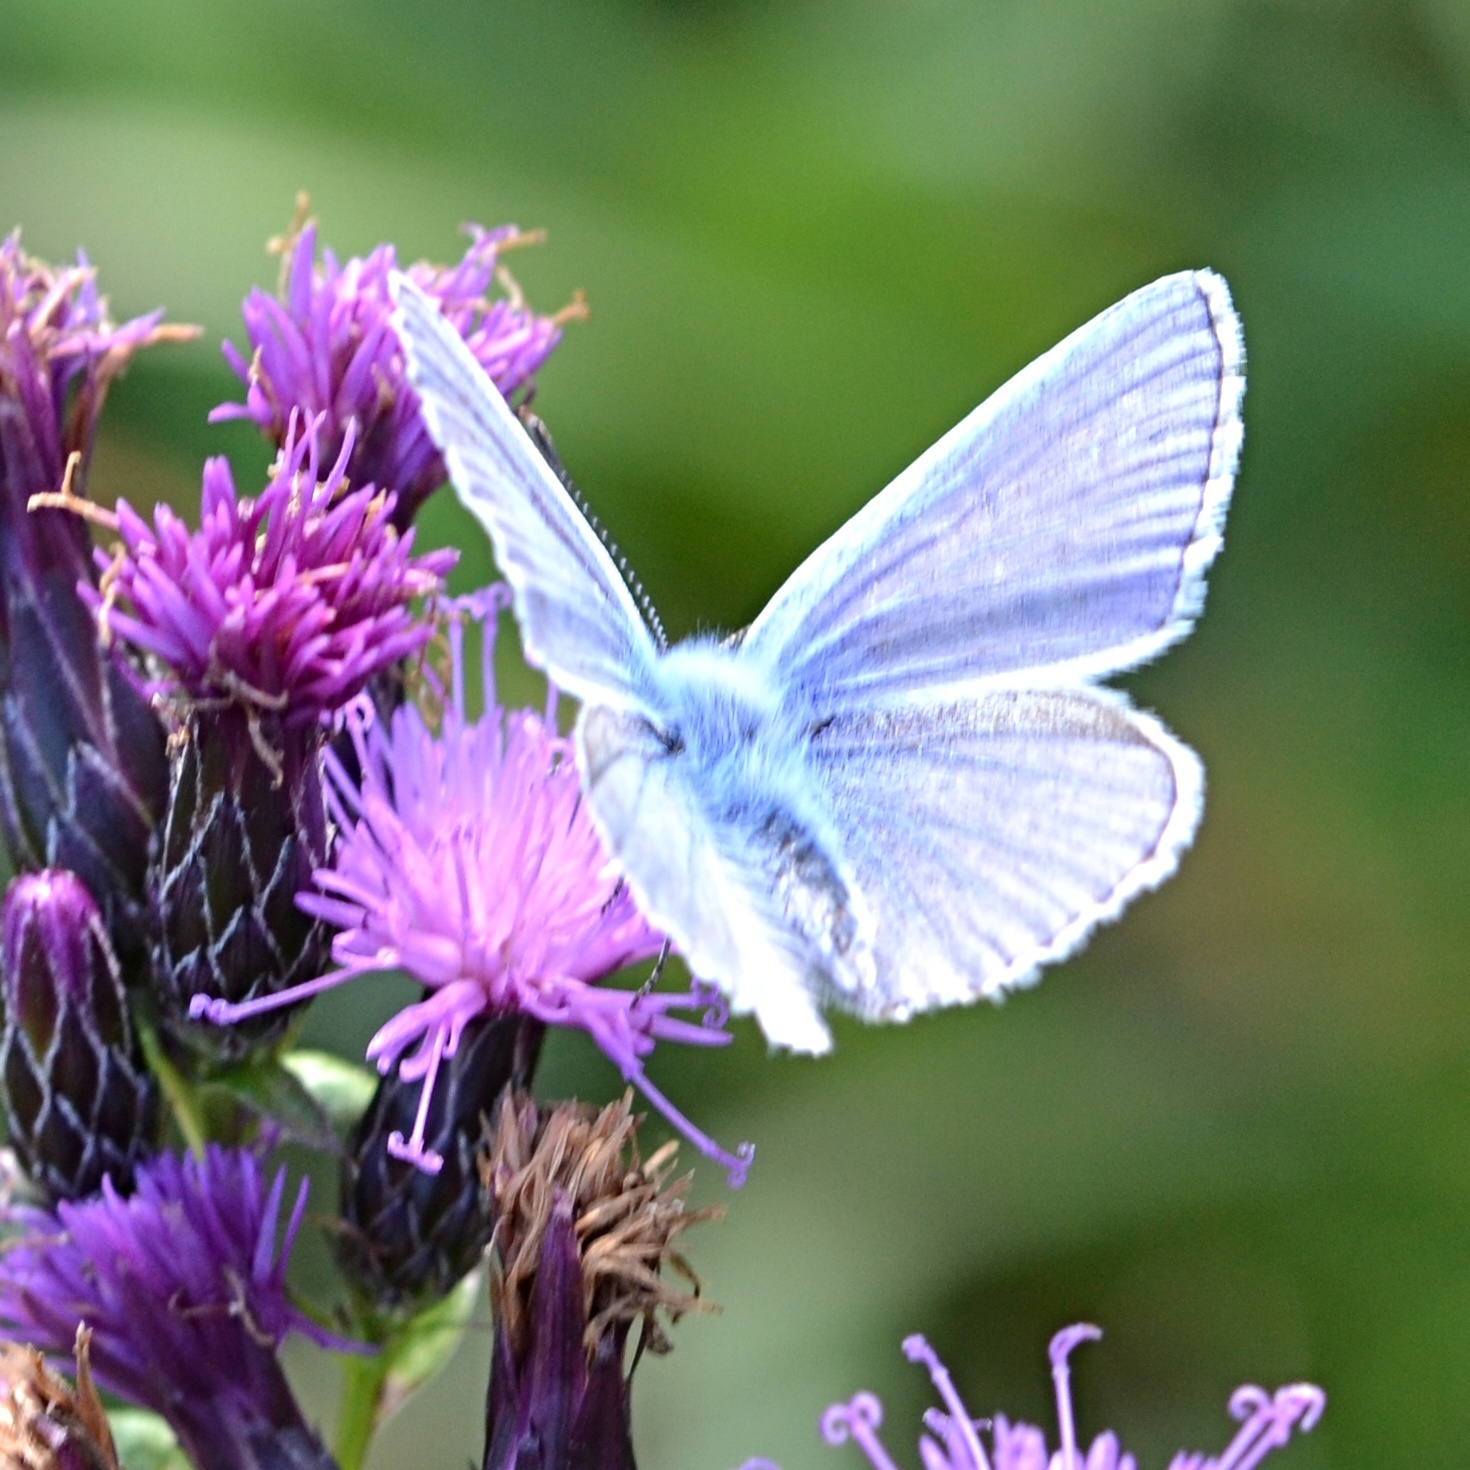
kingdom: Animalia
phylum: Arthropoda
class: Insecta
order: Lepidoptera
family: Lycaenidae
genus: Polyommatus
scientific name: Polyommatus icarus
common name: Common blue
